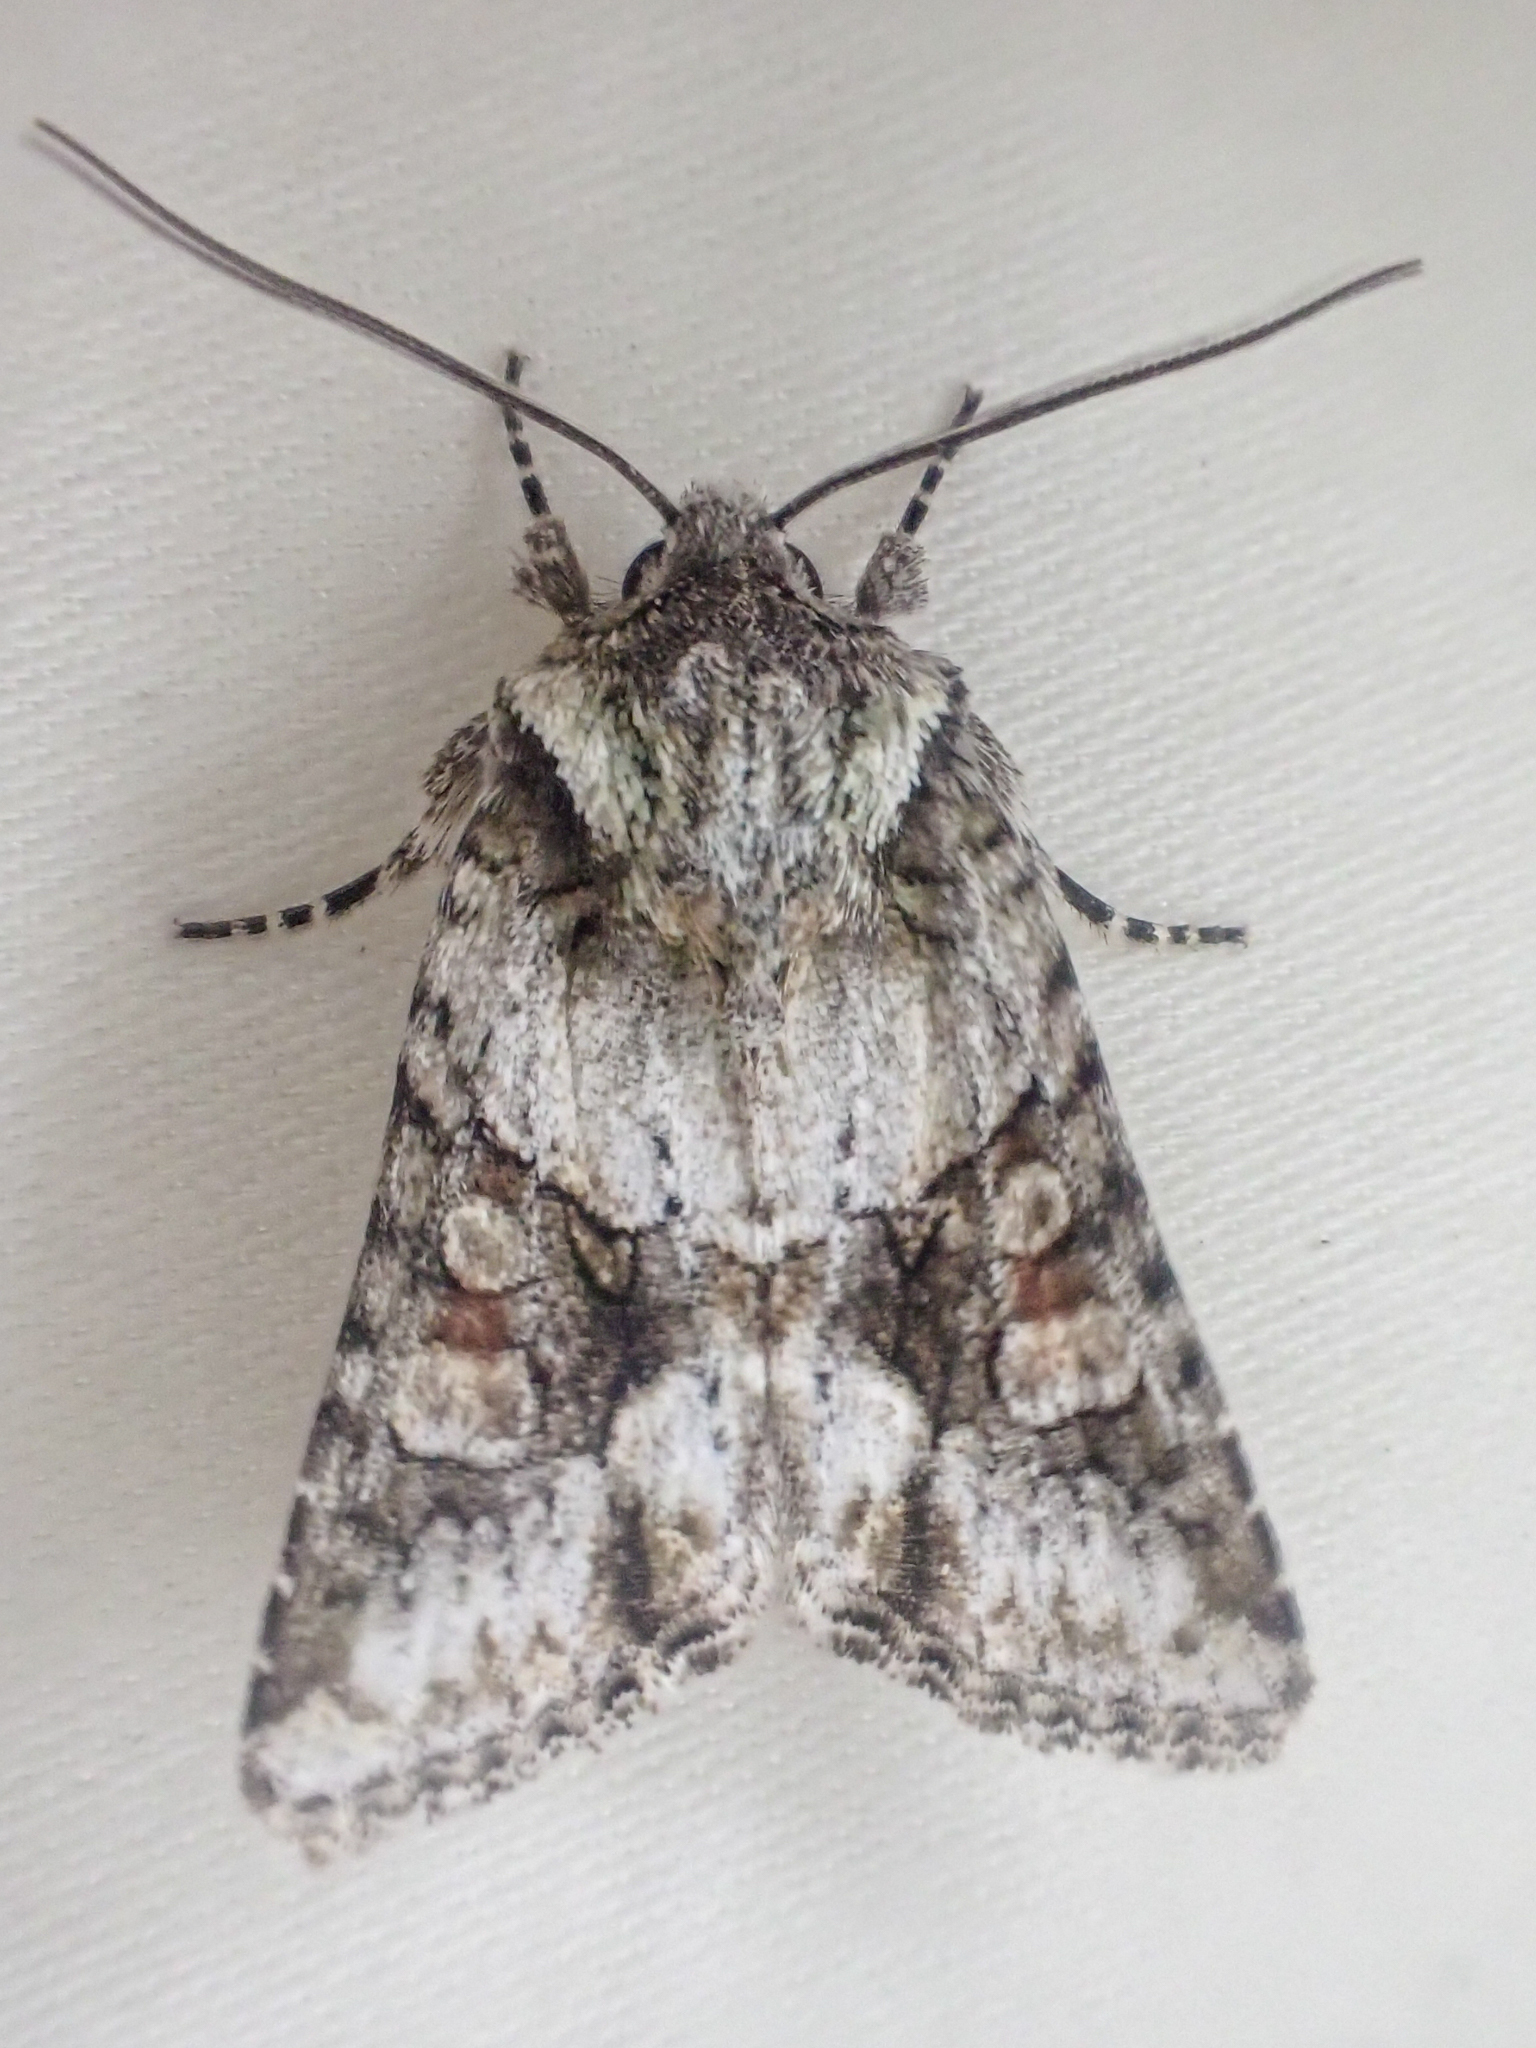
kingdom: Animalia
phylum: Arthropoda
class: Insecta
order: Lepidoptera
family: Noctuidae
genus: Lacinipolia
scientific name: Lacinipolia quadrilineata
